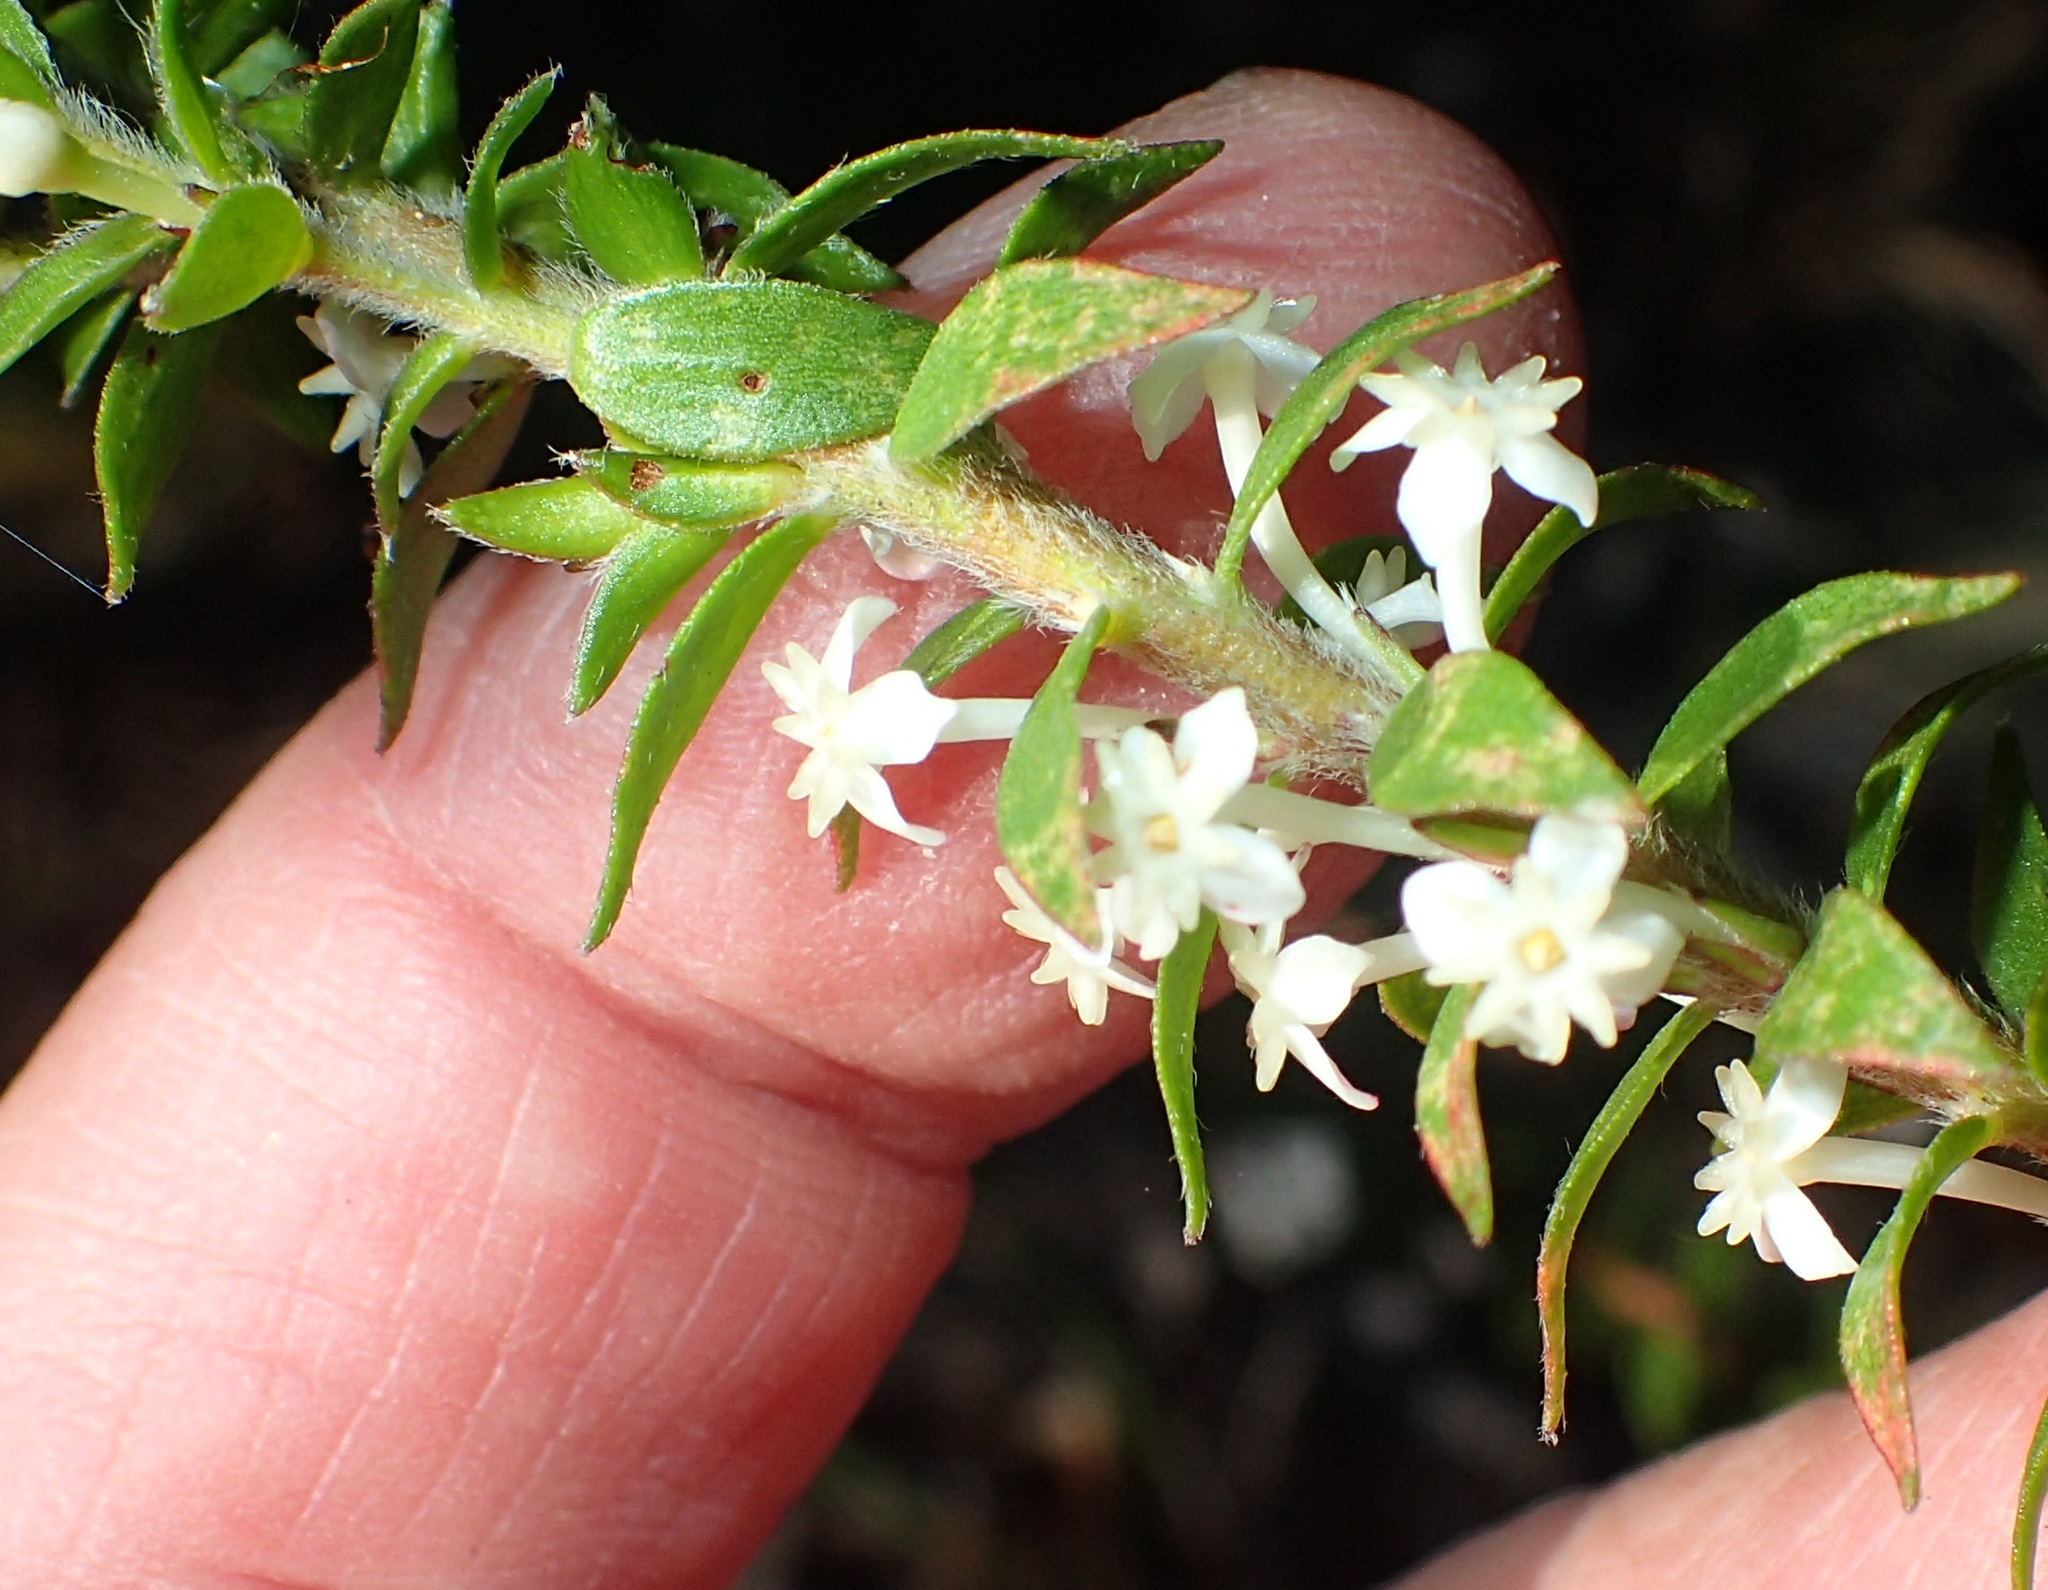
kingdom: Plantae
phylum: Tracheophyta
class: Magnoliopsida
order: Malvales
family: Thymelaeaceae
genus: Struthiola
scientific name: Struthiola hirsuta
